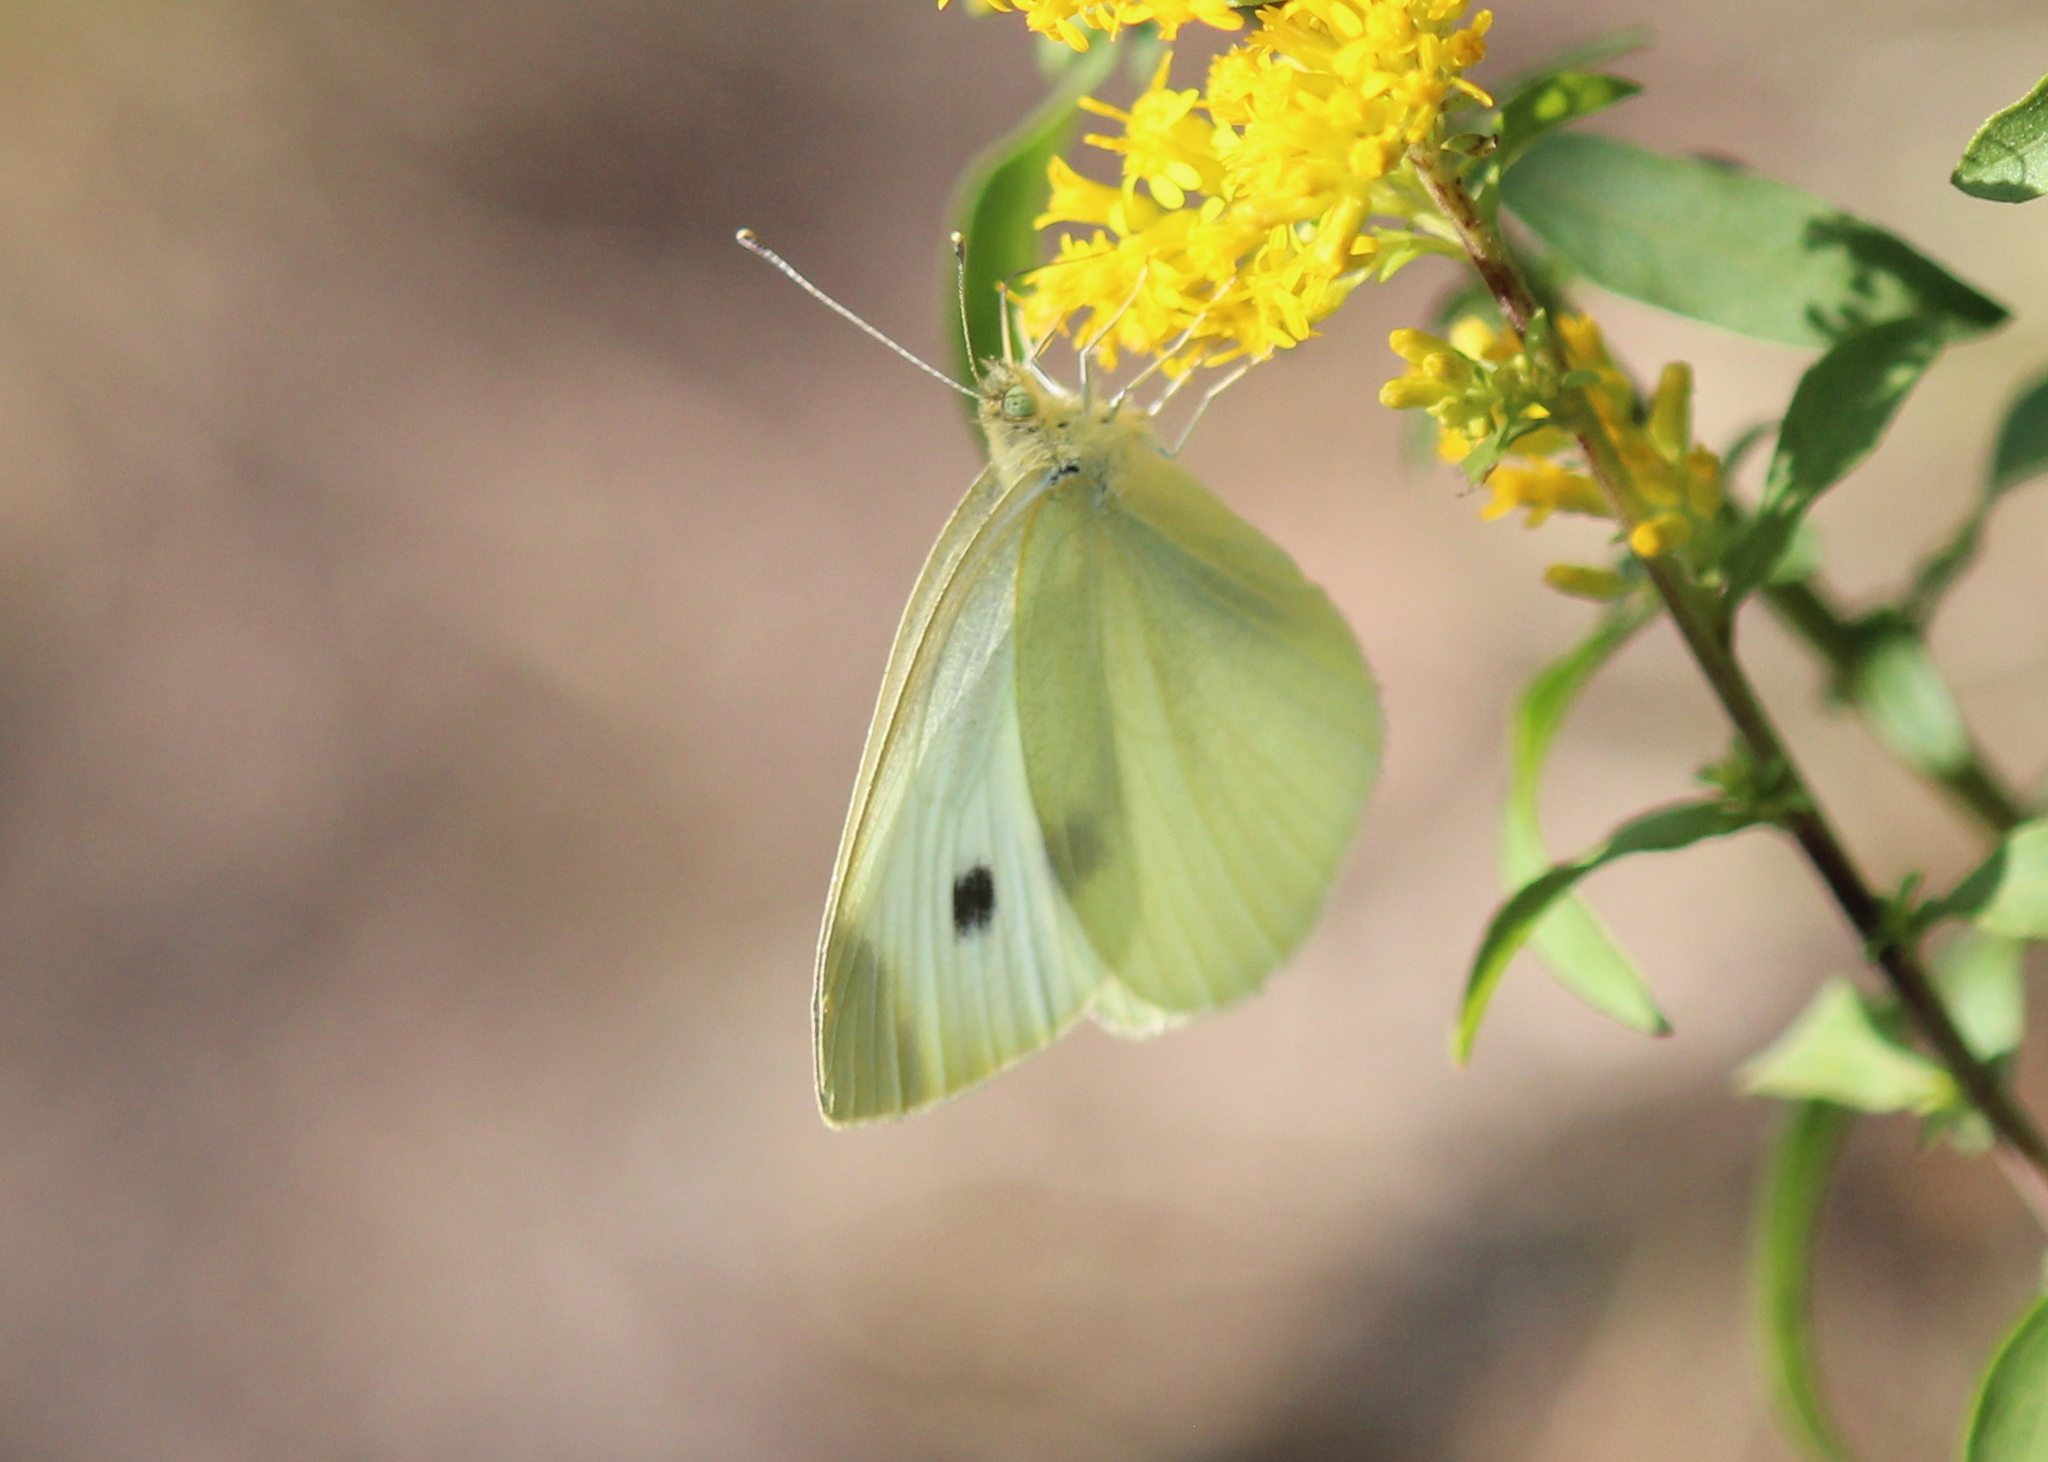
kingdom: Animalia
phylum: Arthropoda
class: Insecta
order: Lepidoptera
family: Pieridae
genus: Pieris
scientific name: Pieris rapae
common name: Small white
